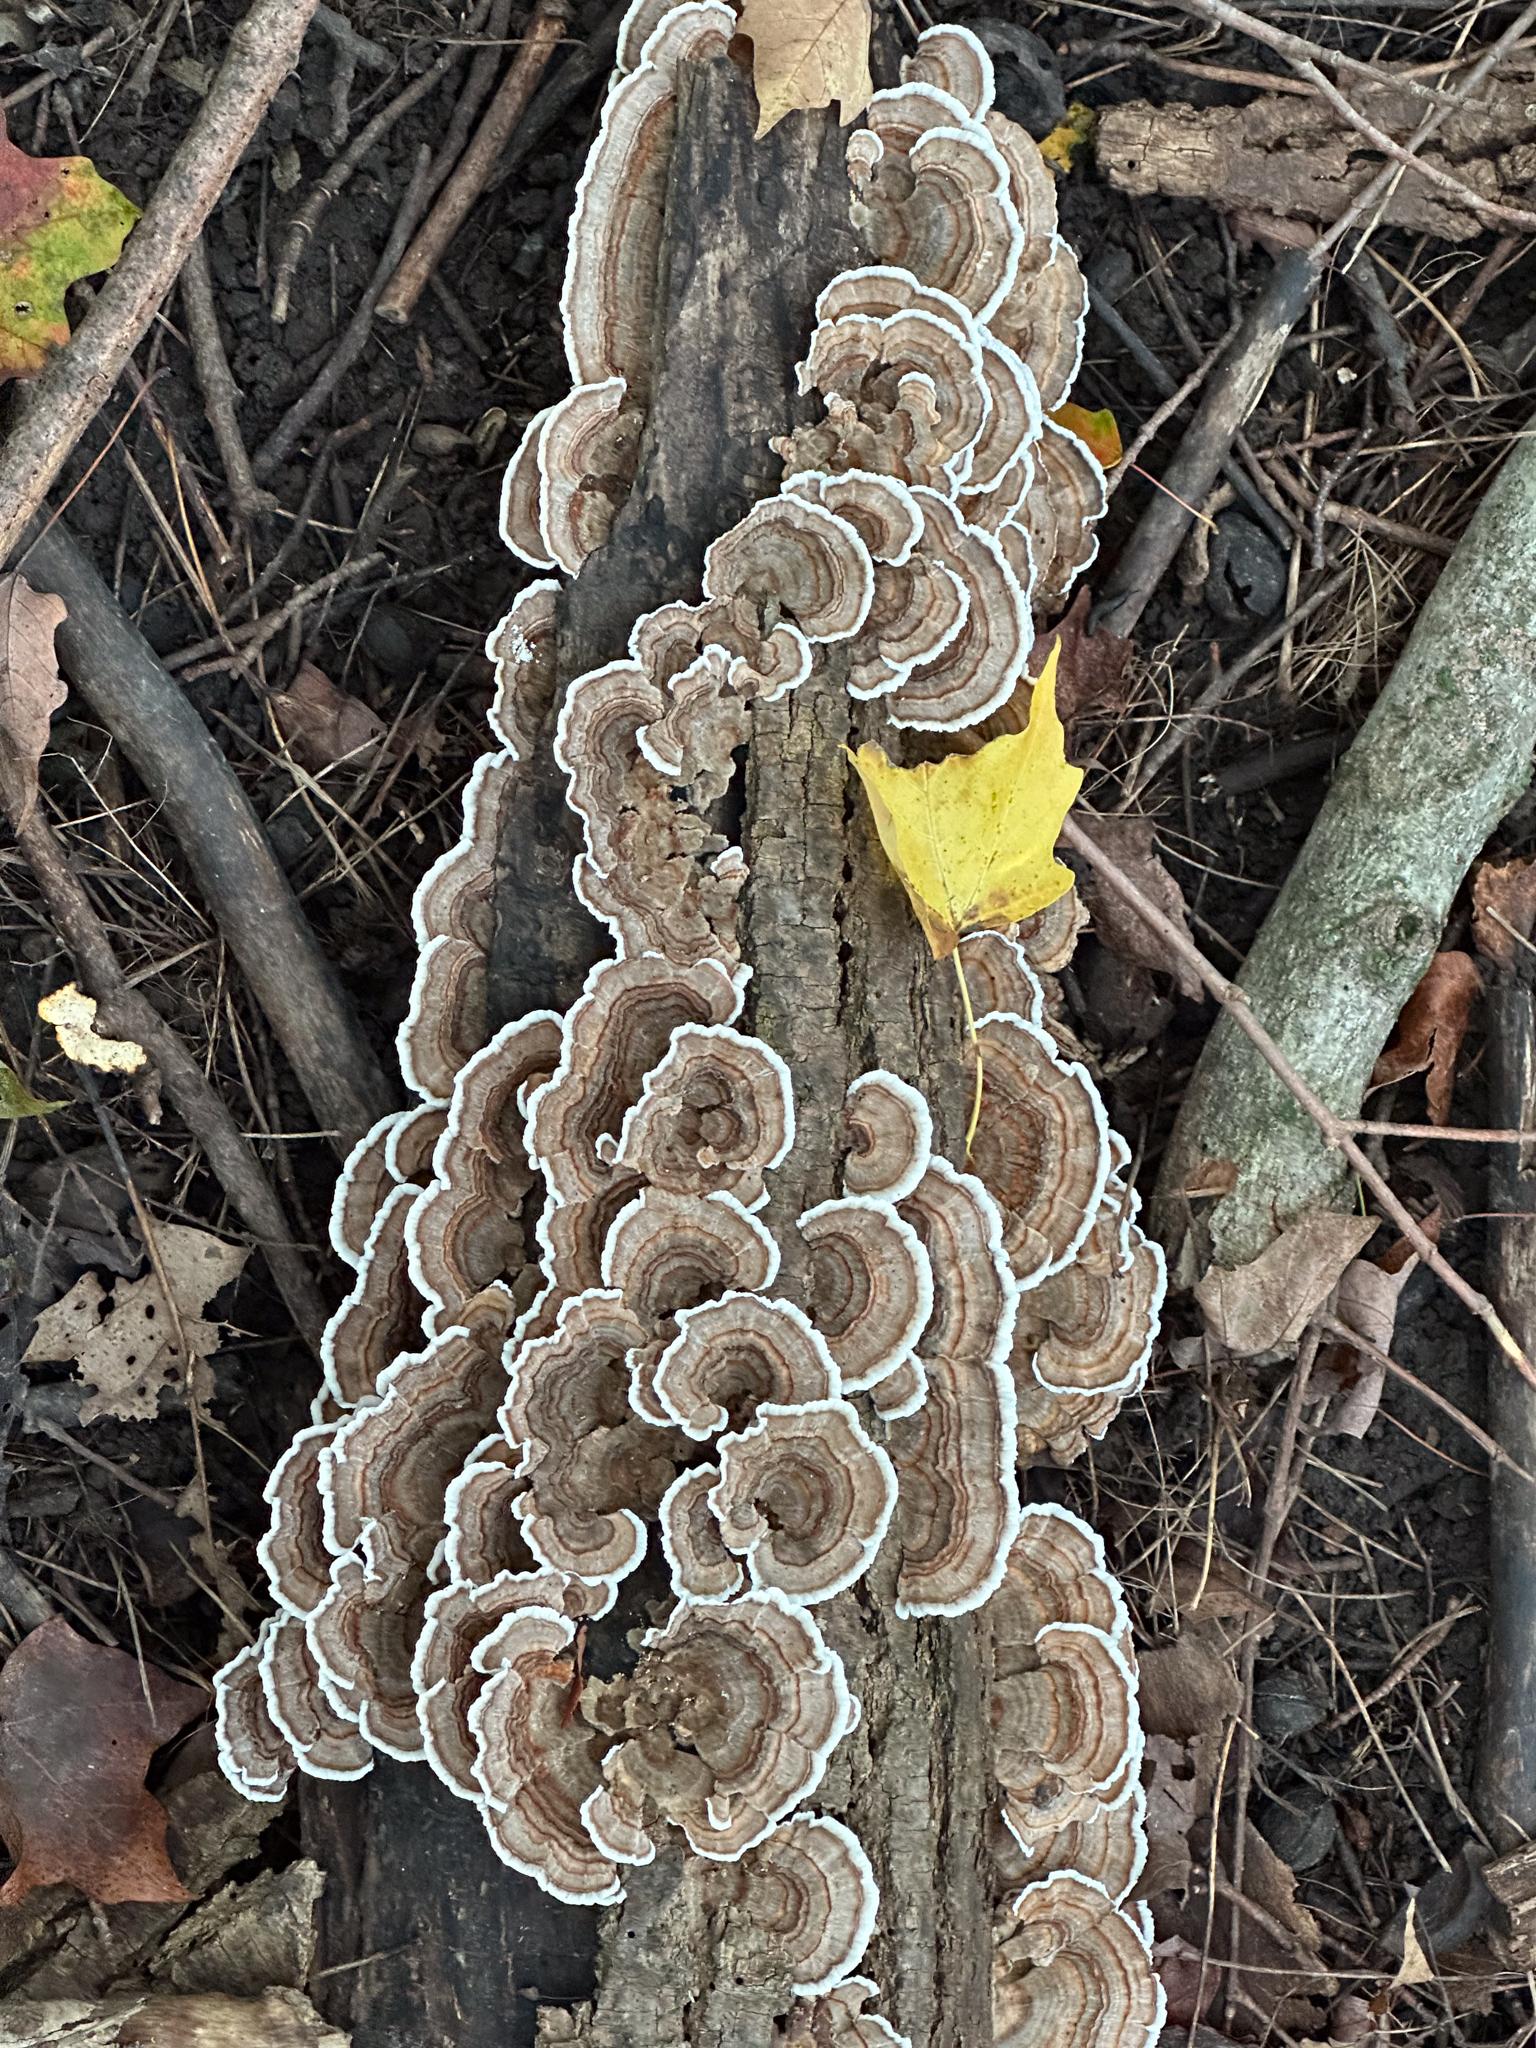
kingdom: Fungi
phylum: Basidiomycota
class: Agaricomycetes
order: Polyporales
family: Polyporaceae
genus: Trametes
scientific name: Trametes versicolor
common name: Turkeytail
